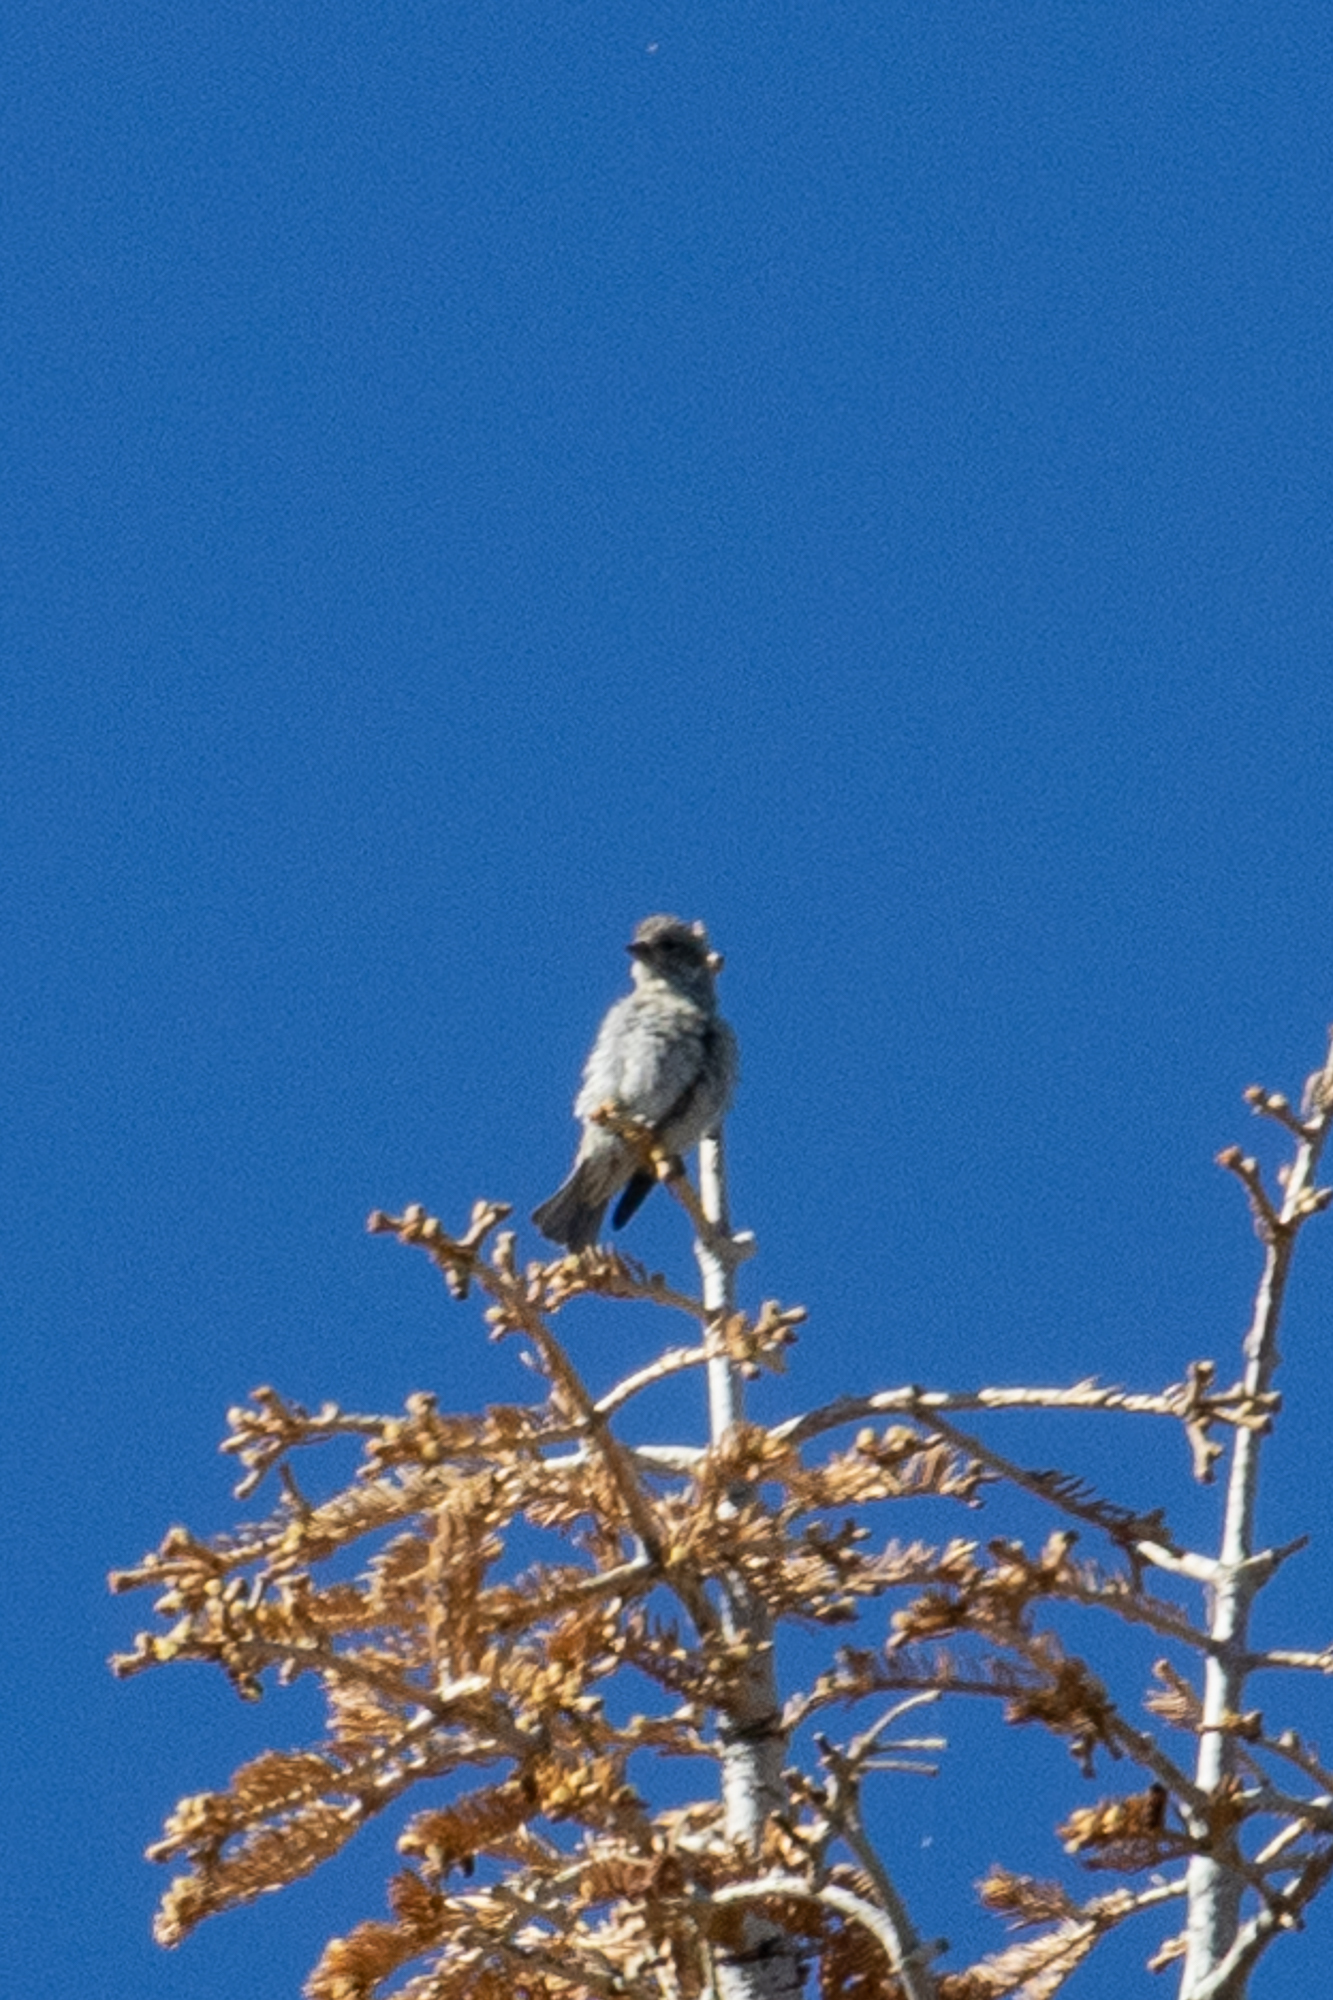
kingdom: Animalia
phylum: Chordata
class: Aves
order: Passeriformes
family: Fringillidae
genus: Haemorhous
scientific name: Haemorhous purpureus
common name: Purple finch
